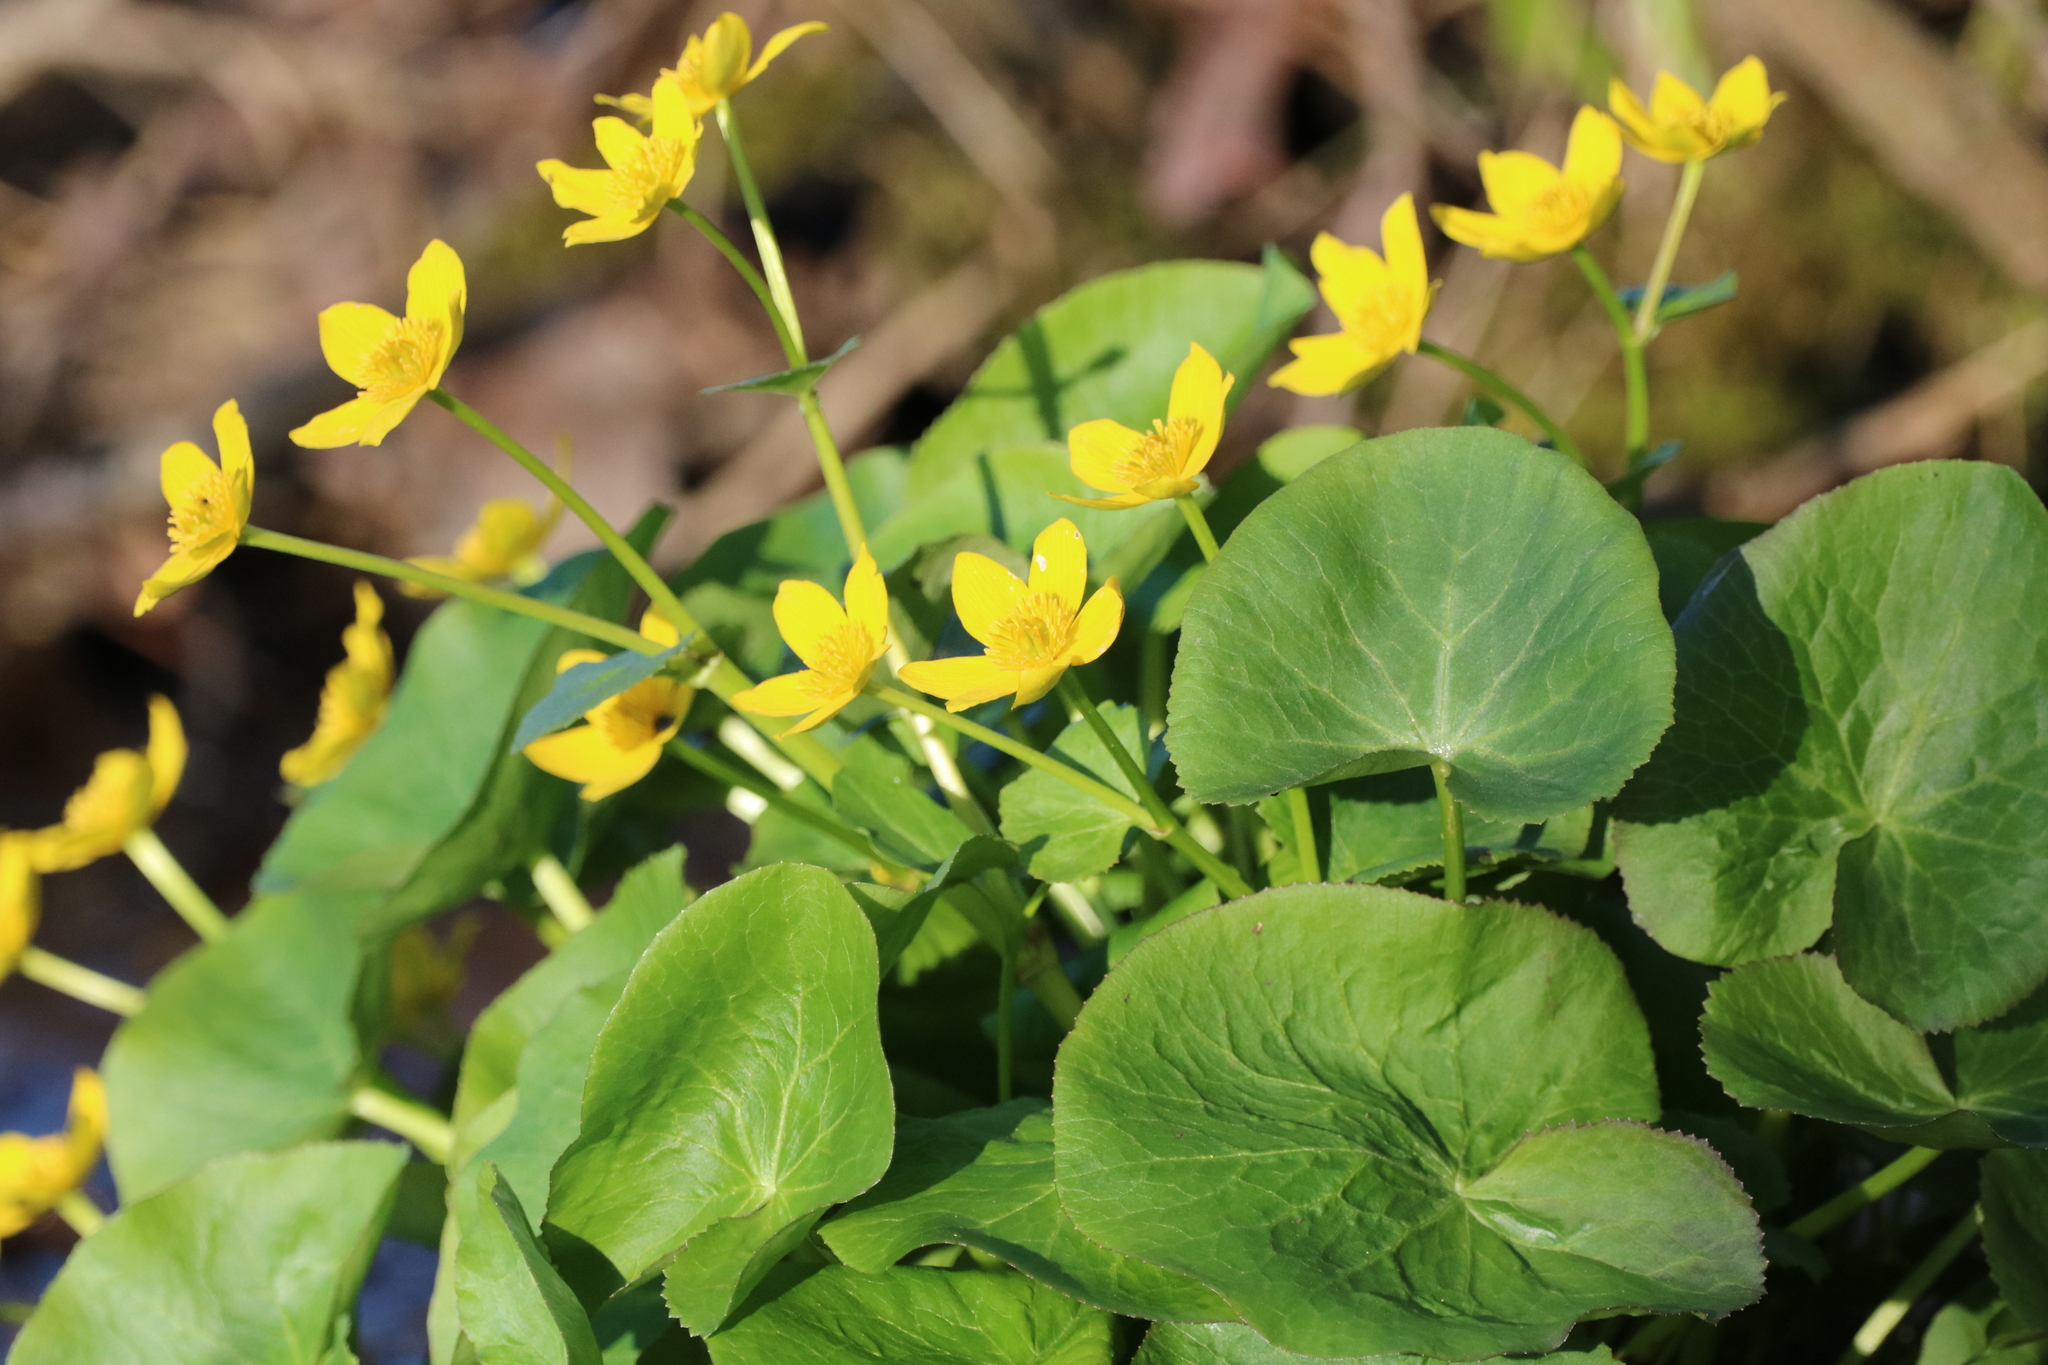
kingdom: Plantae
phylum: Tracheophyta
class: Magnoliopsida
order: Ranunculales
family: Ranunculaceae
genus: Caltha
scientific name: Caltha palustris
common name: Marsh marigold
